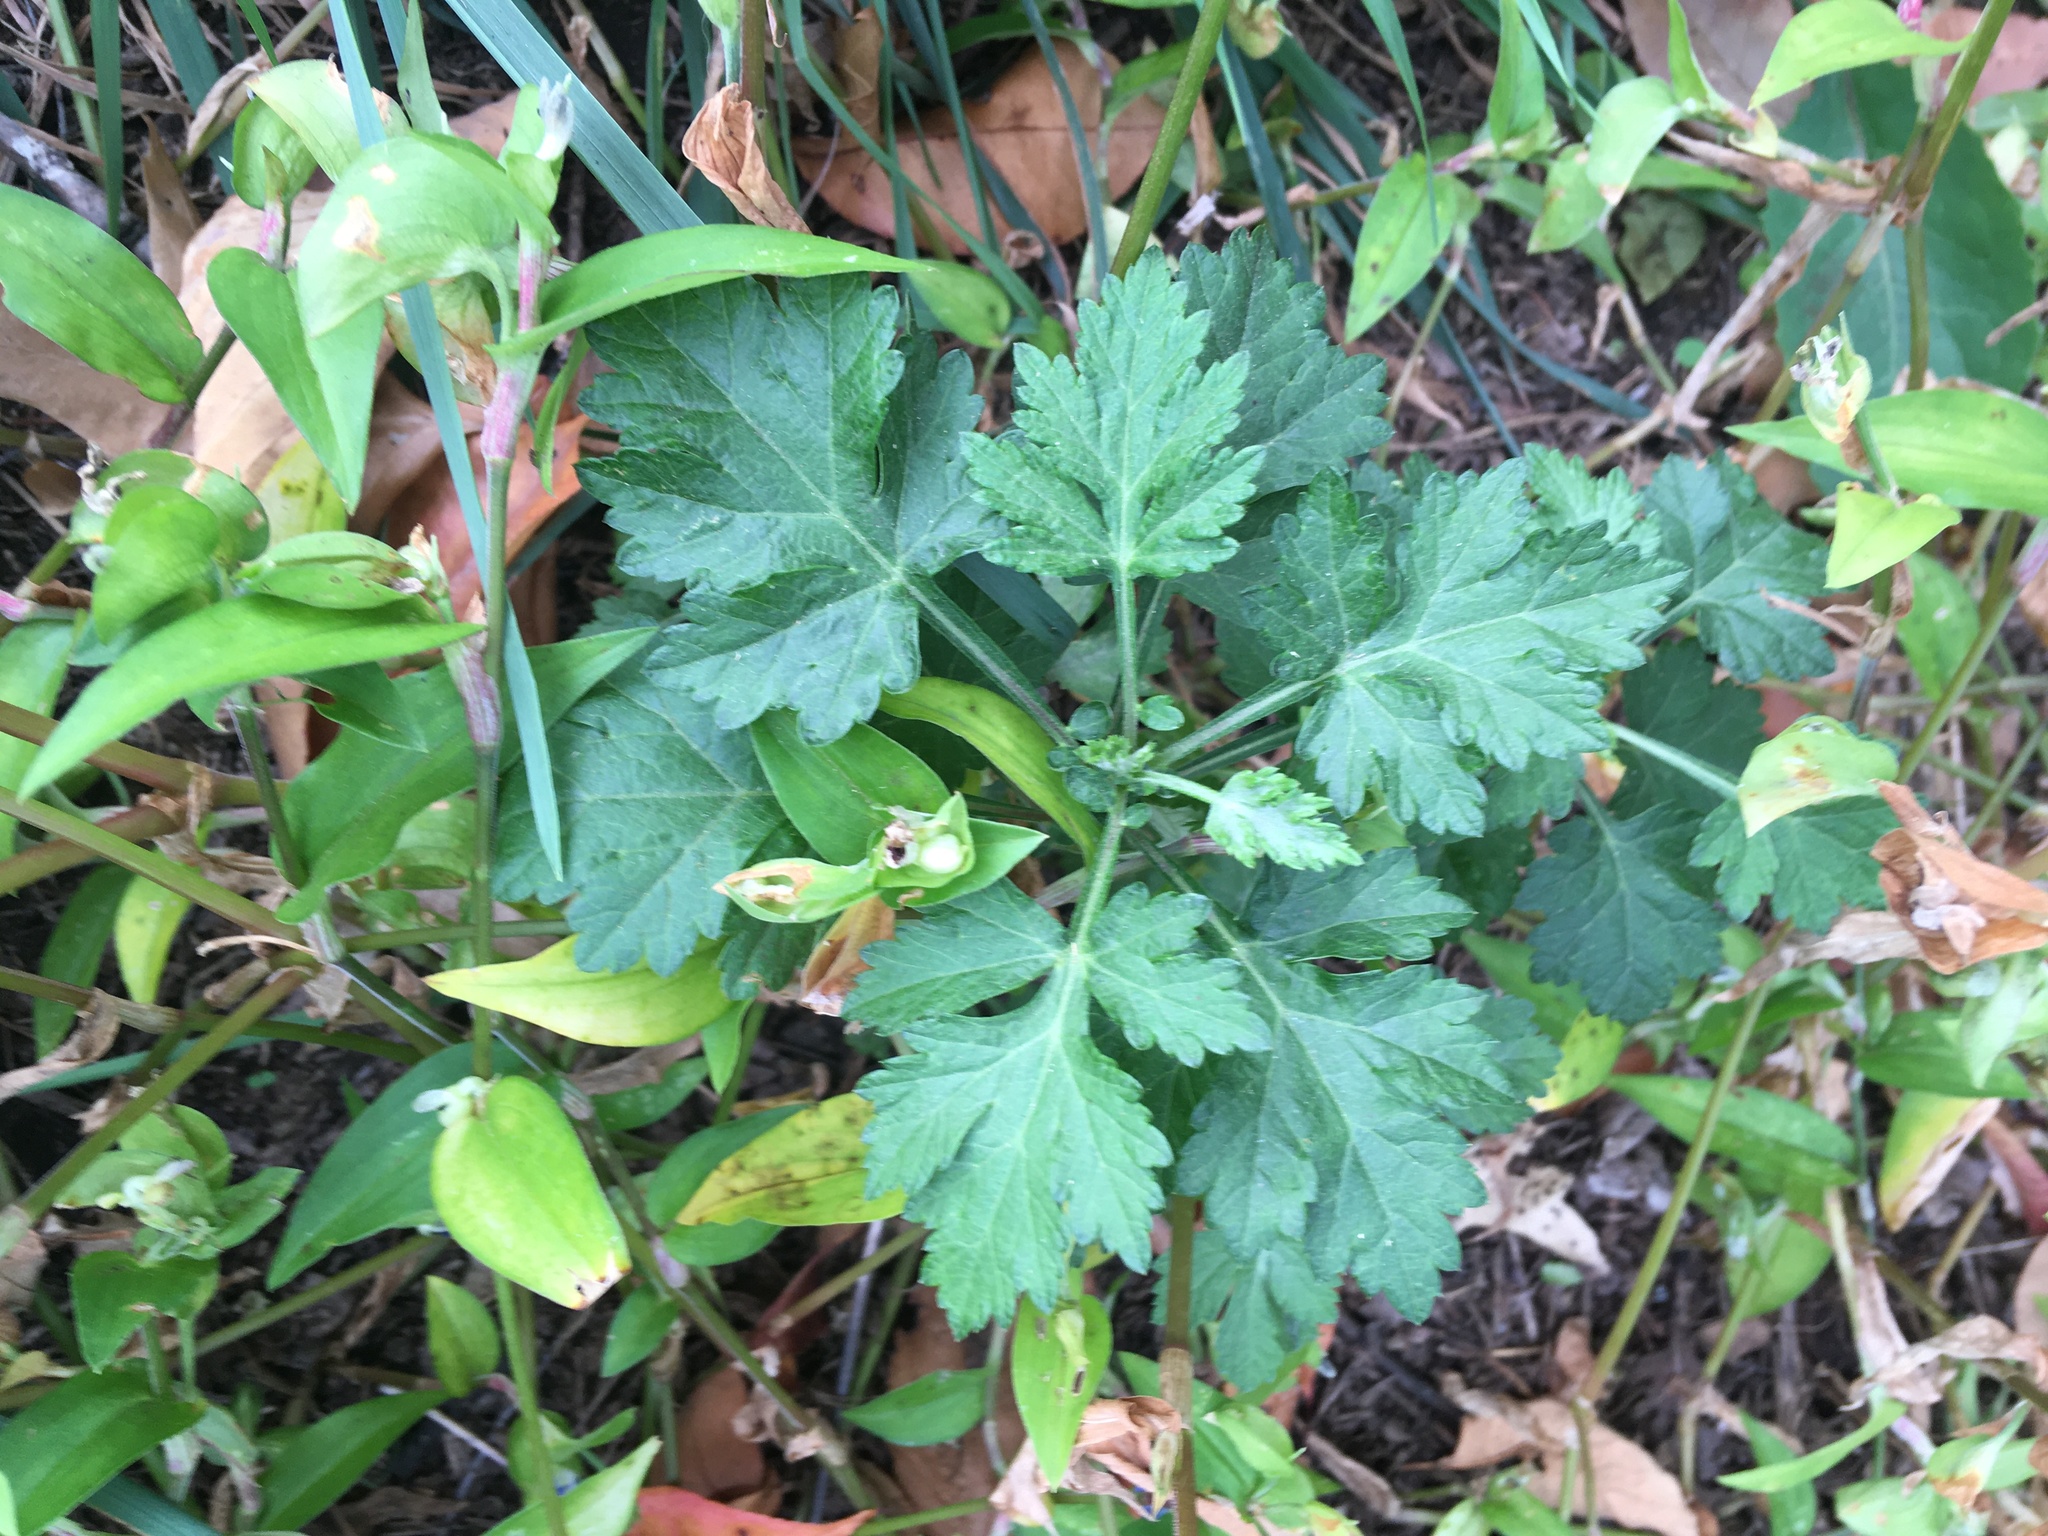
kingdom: Plantae
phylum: Tracheophyta
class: Magnoliopsida
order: Asterales
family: Asteraceae
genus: Artemisia
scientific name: Artemisia vulgaris
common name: Mugwort
